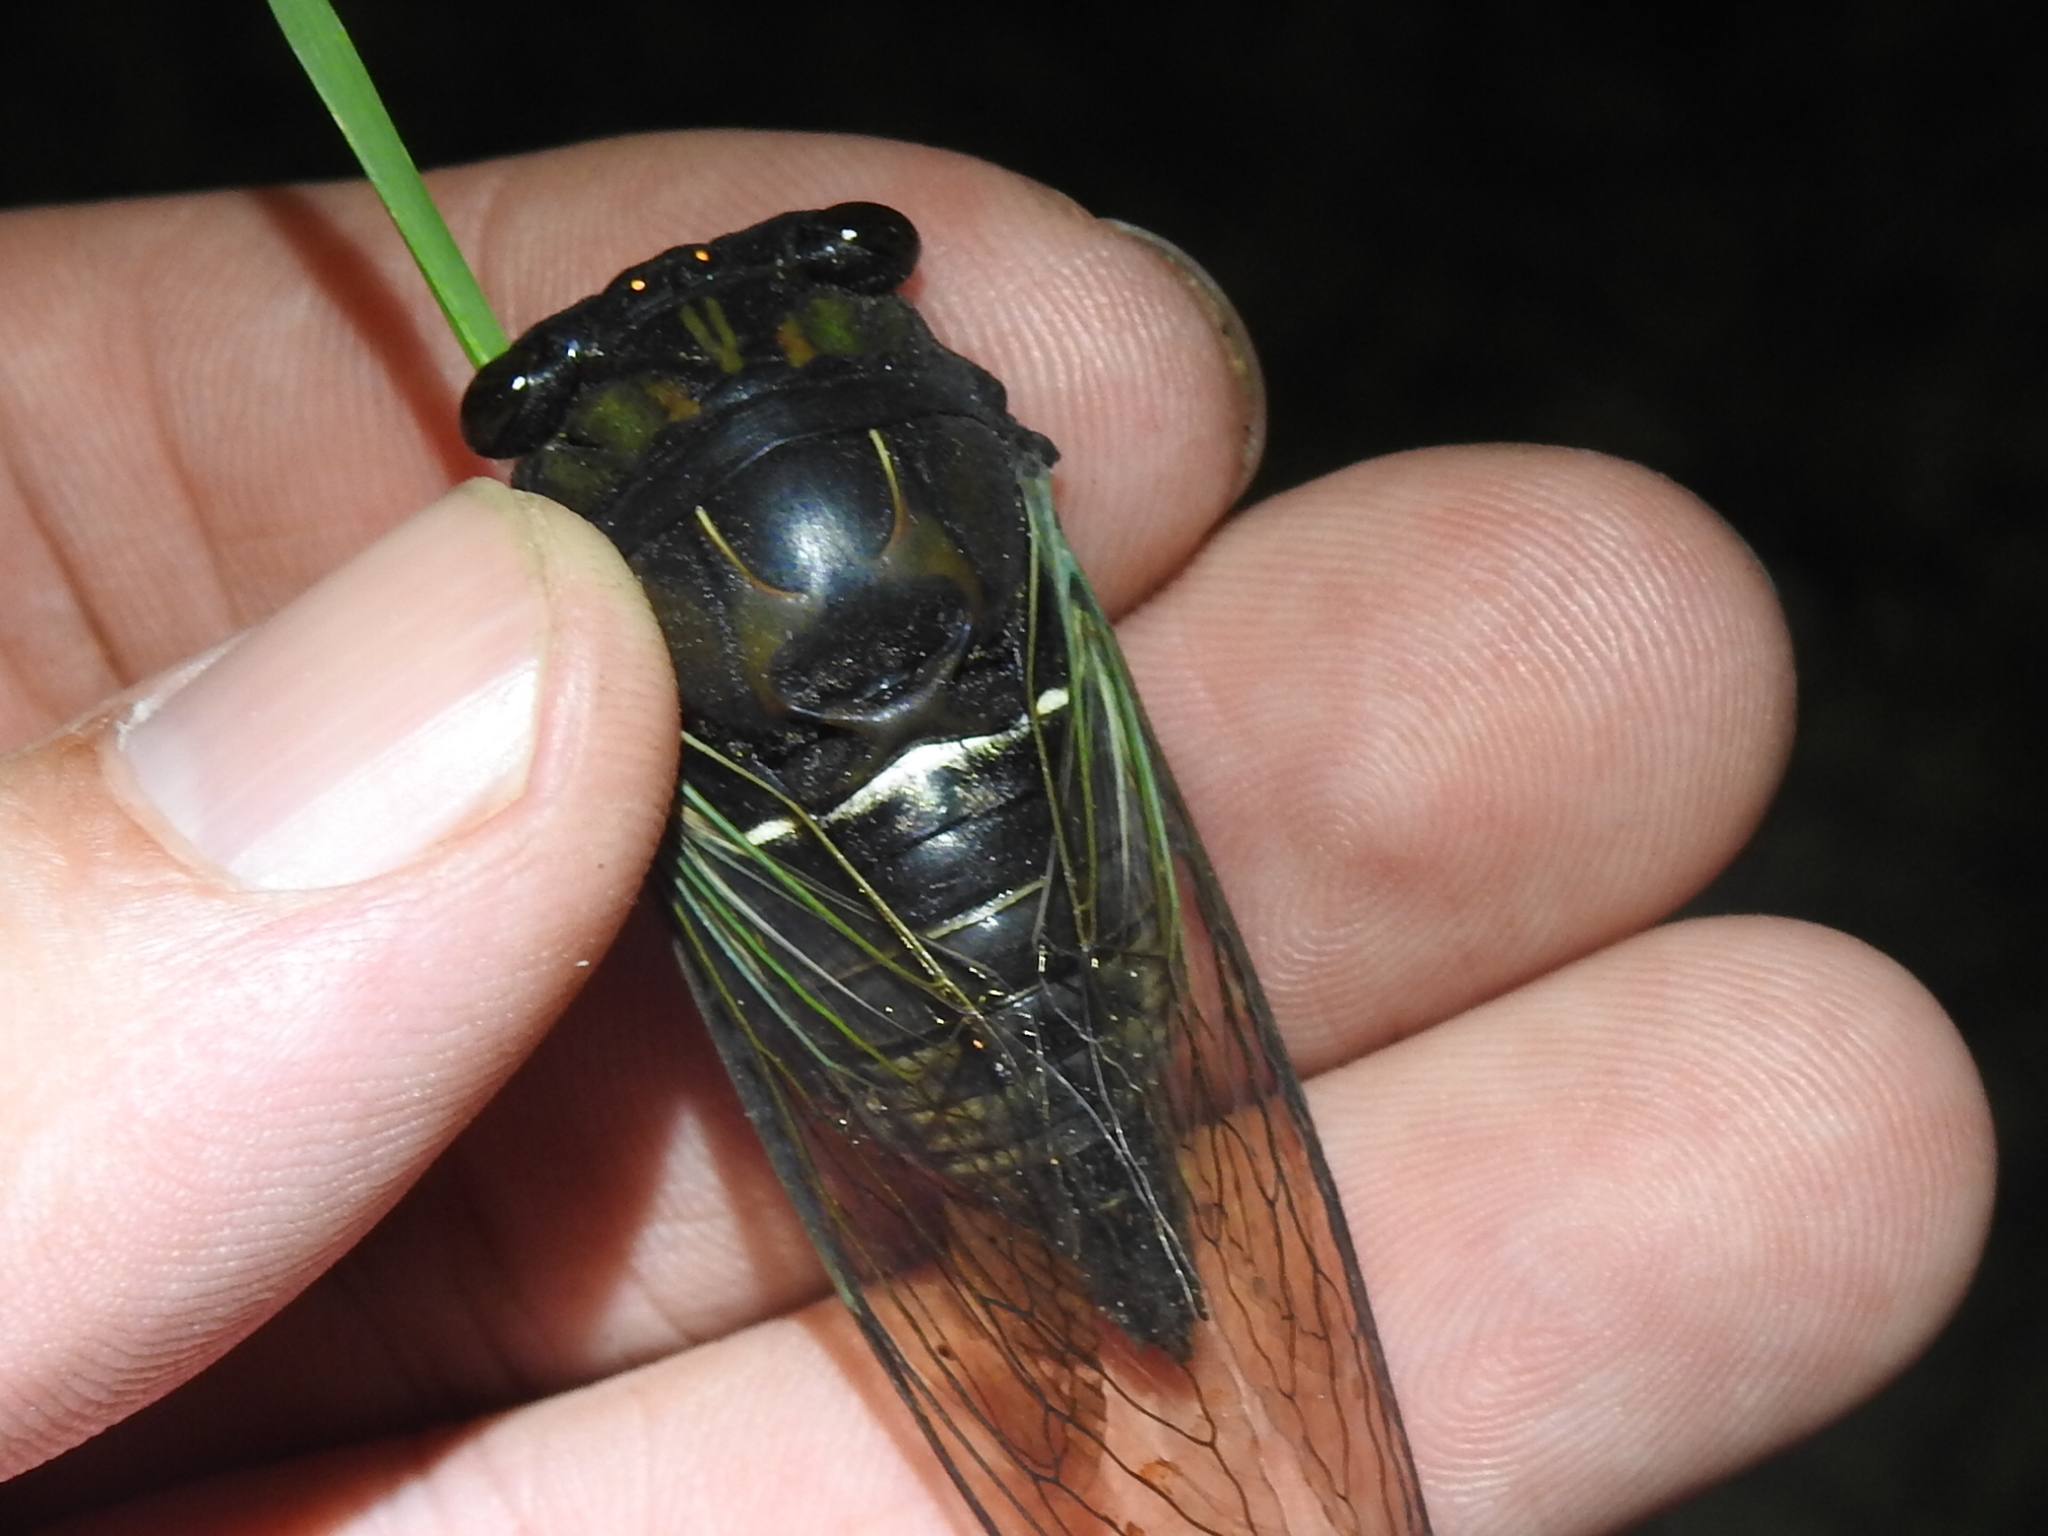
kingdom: Animalia
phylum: Arthropoda
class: Insecta
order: Hemiptera
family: Cicadidae
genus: Neotibicen
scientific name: Neotibicen lyricen
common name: Lyric cicada
